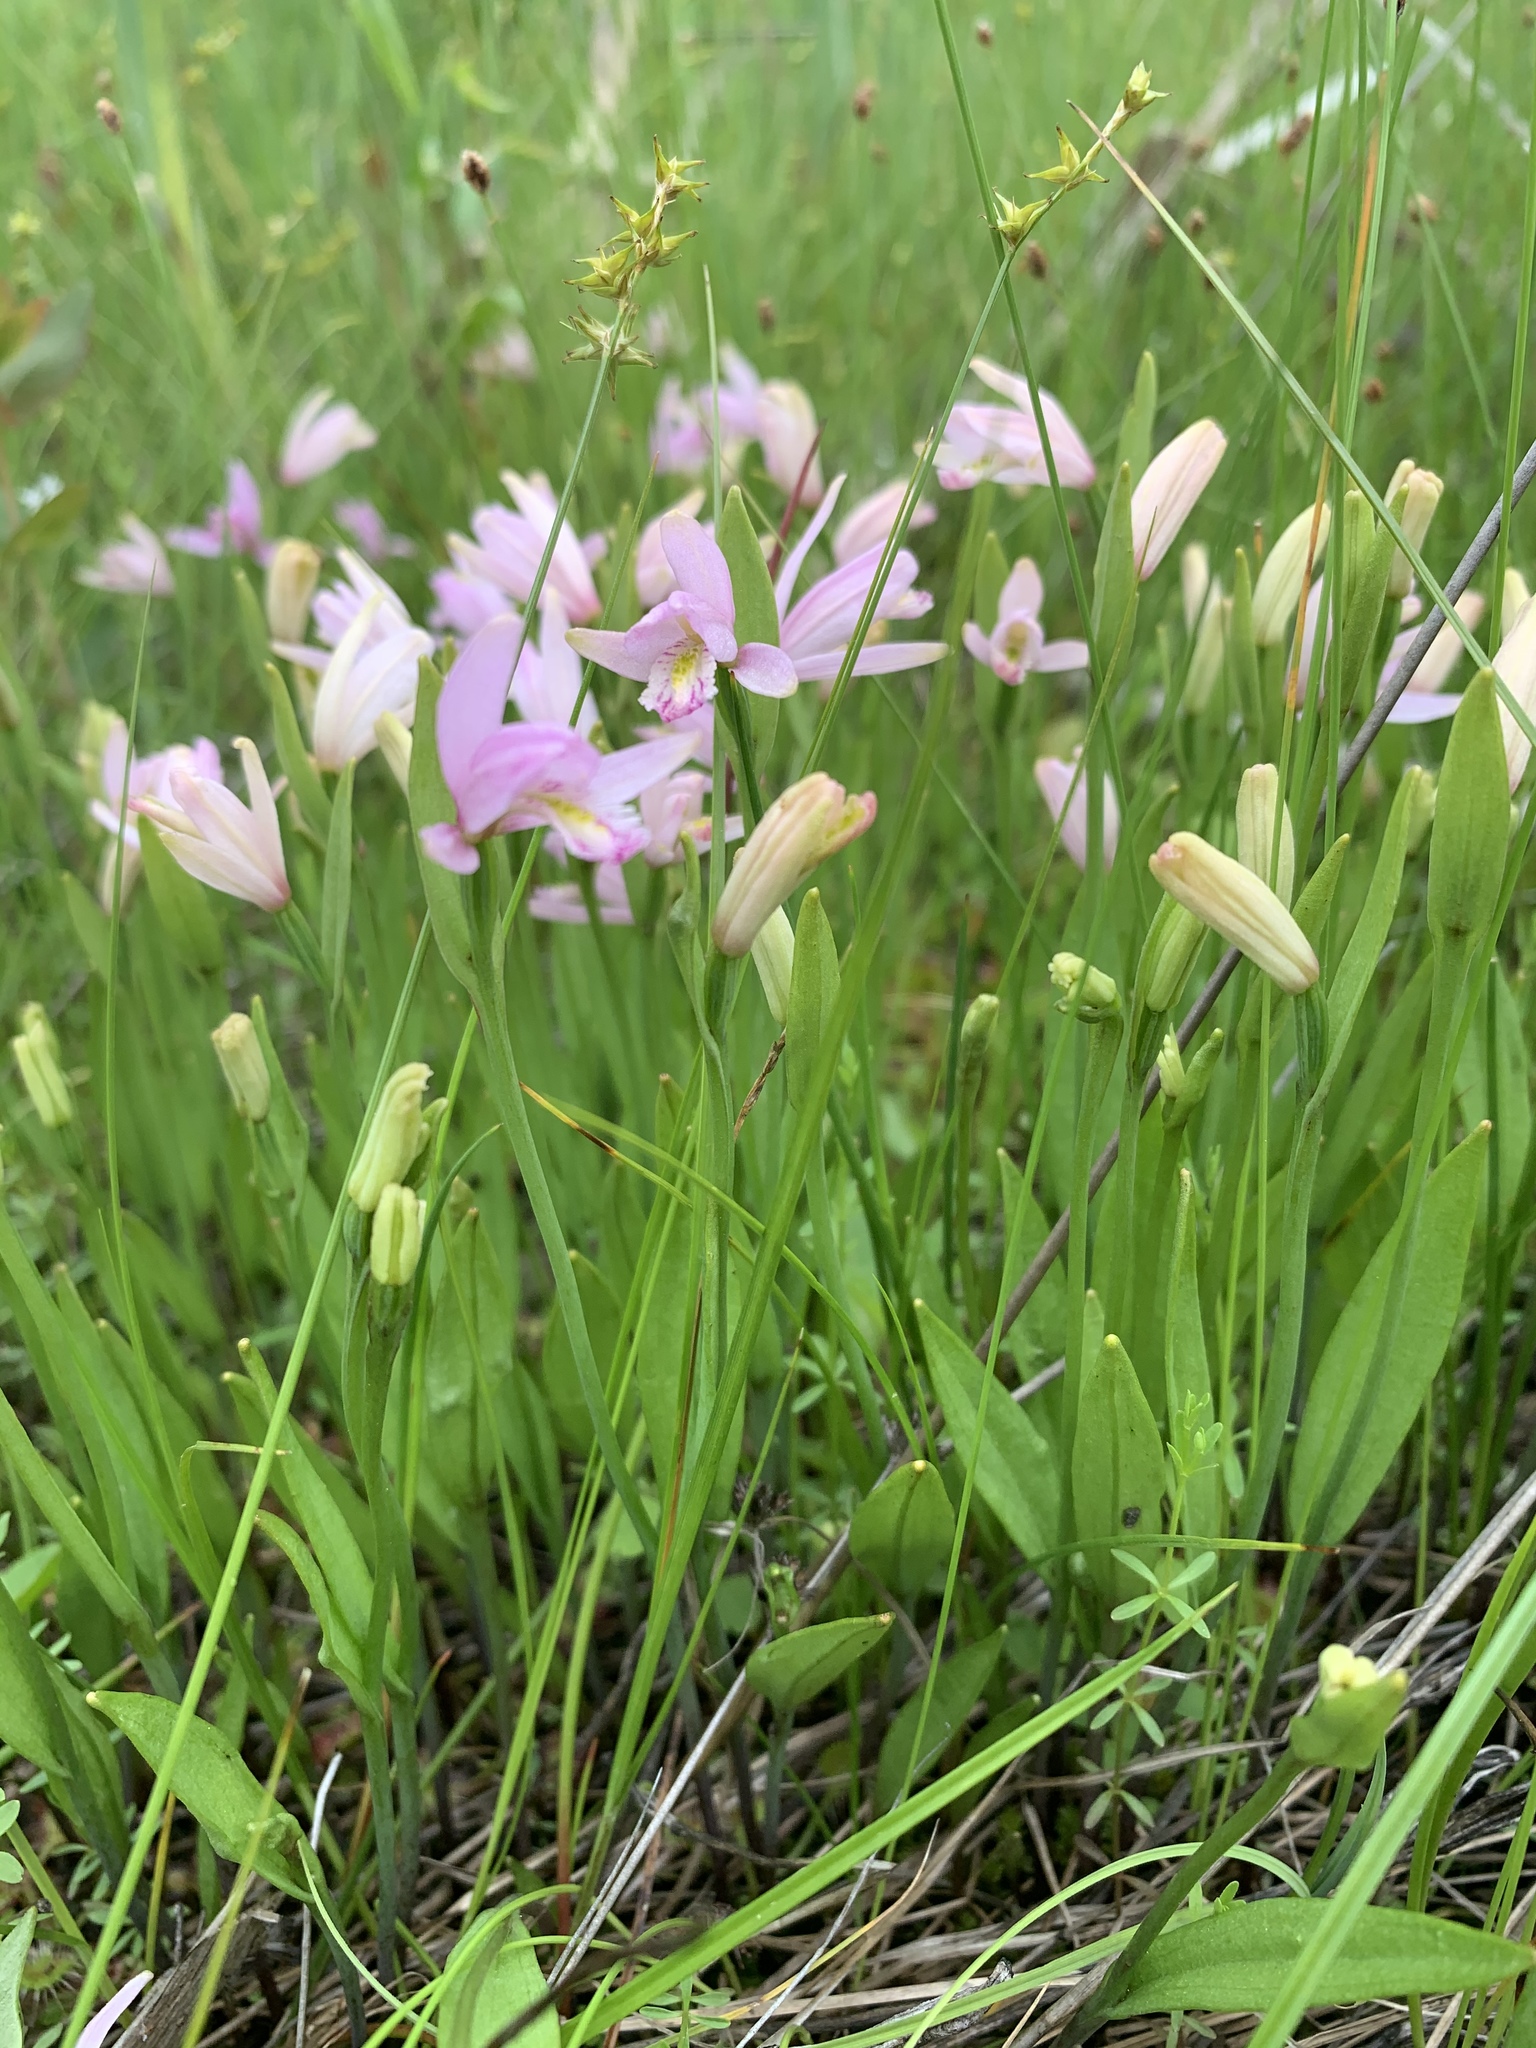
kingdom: Plantae
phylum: Tracheophyta
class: Liliopsida
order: Asparagales
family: Orchidaceae
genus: Pogonia
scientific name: Pogonia ophioglossoides
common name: Rose pogonia
